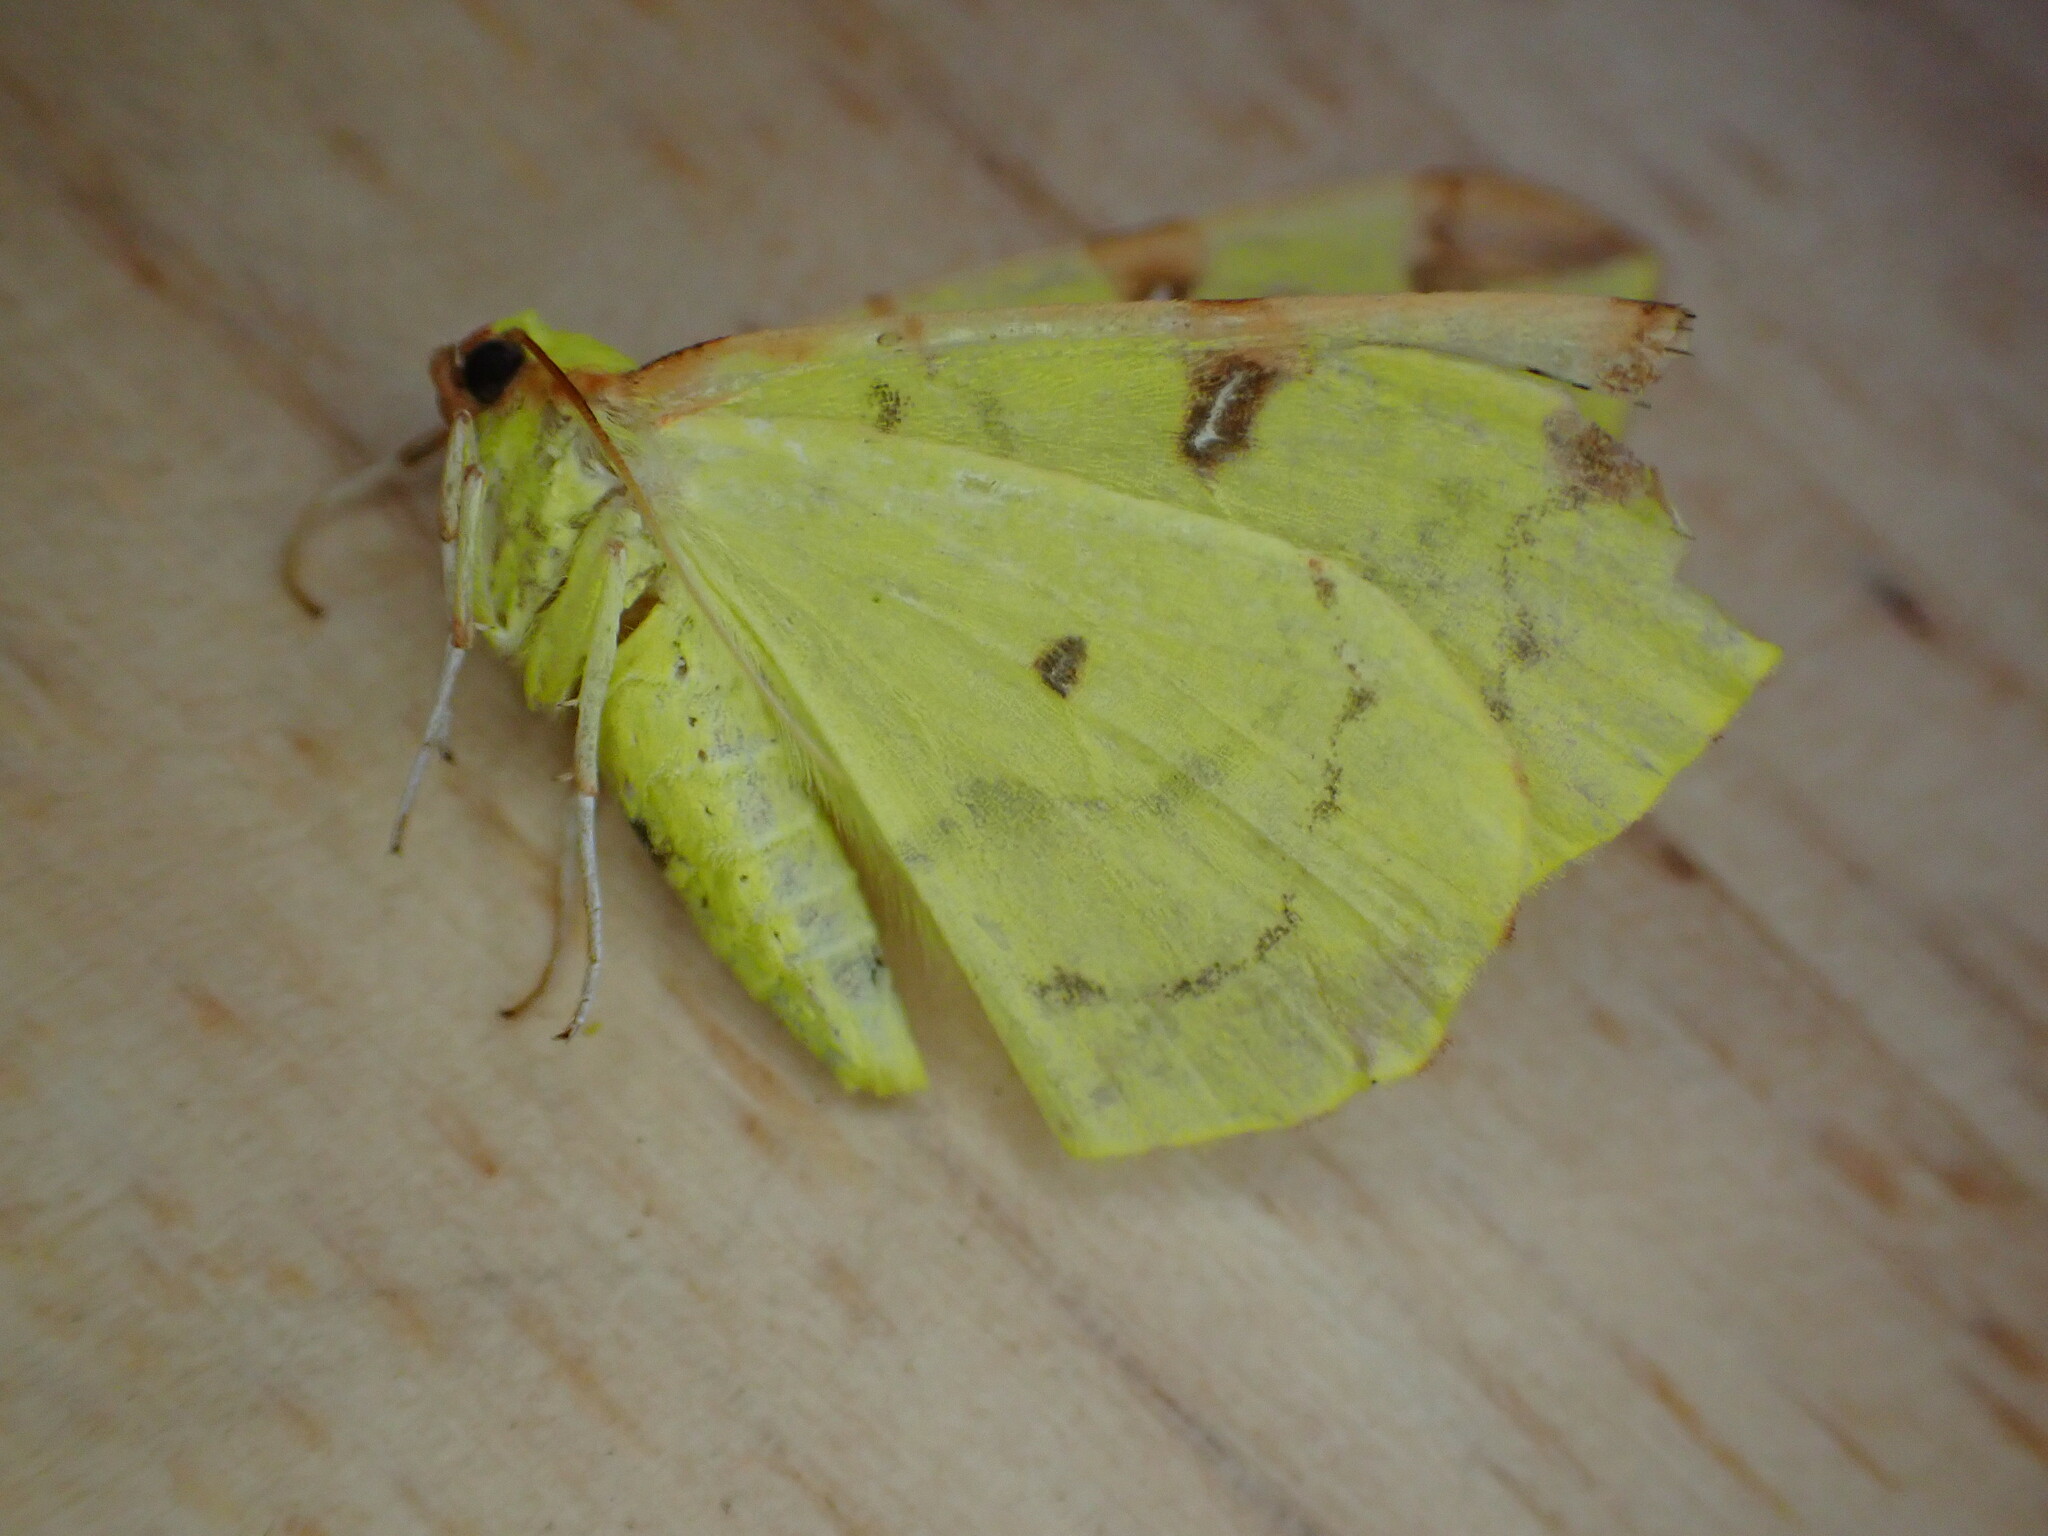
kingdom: Animalia
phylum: Arthropoda
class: Insecta
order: Lepidoptera
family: Geometridae
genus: Opisthograptis
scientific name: Opisthograptis luteolata
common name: Brimstone moth
